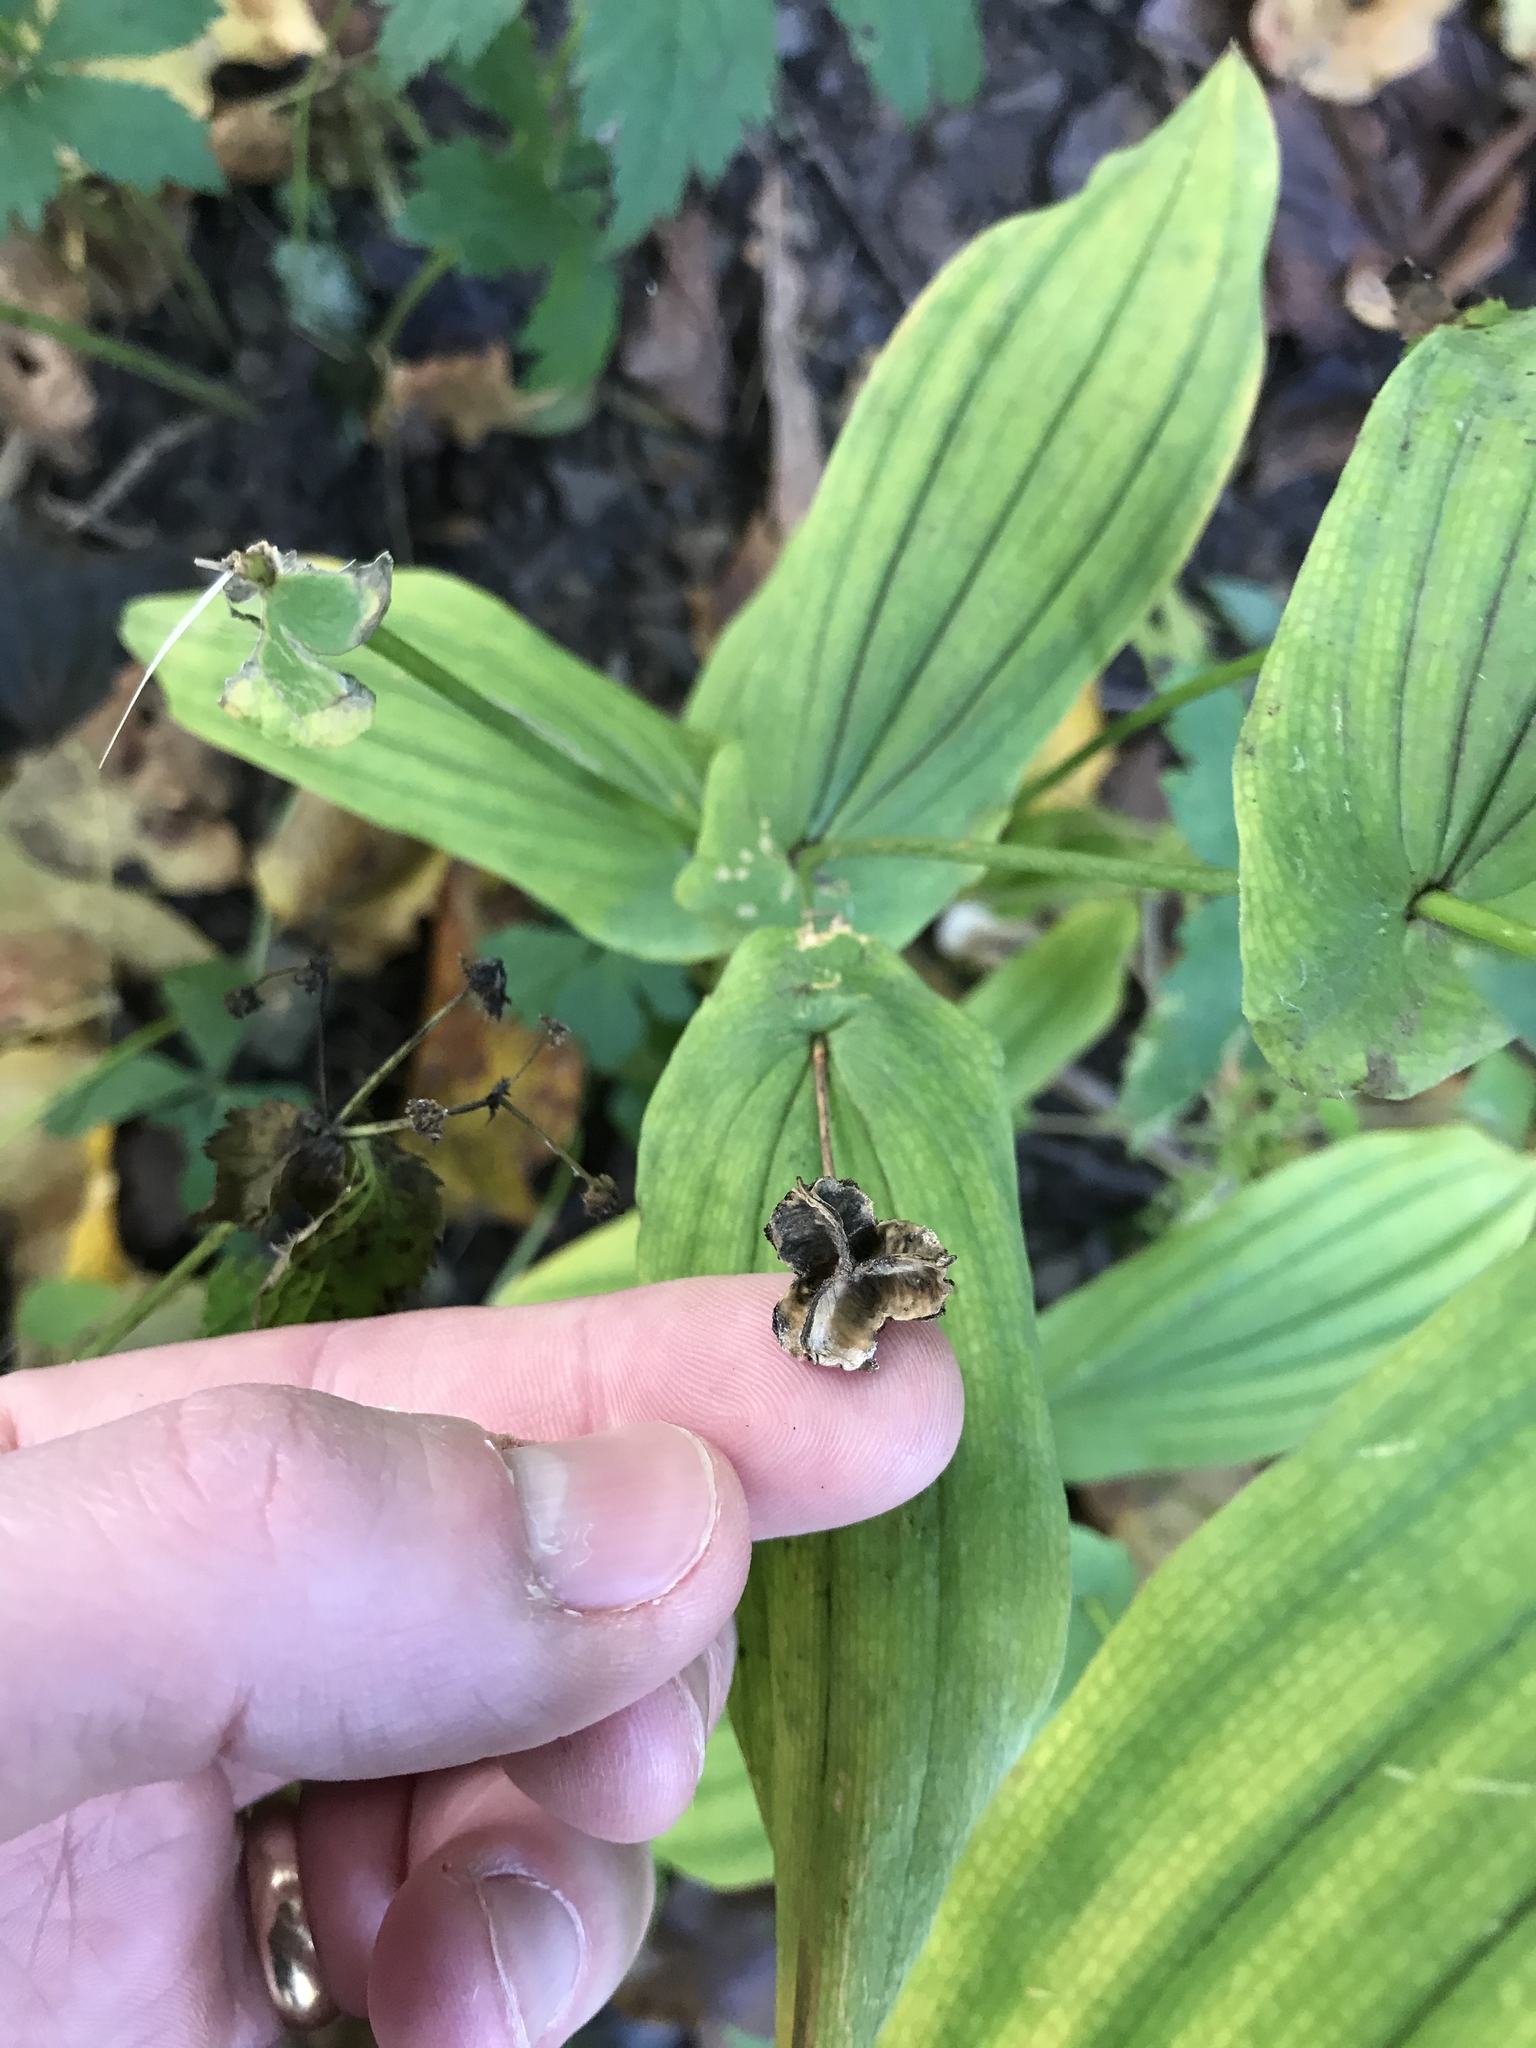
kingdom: Plantae
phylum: Tracheophyta
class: Liliopsida
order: Liliales
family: Colchicaceae
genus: Uvularia
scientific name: Uvularia grandiflora
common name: Bellwort
